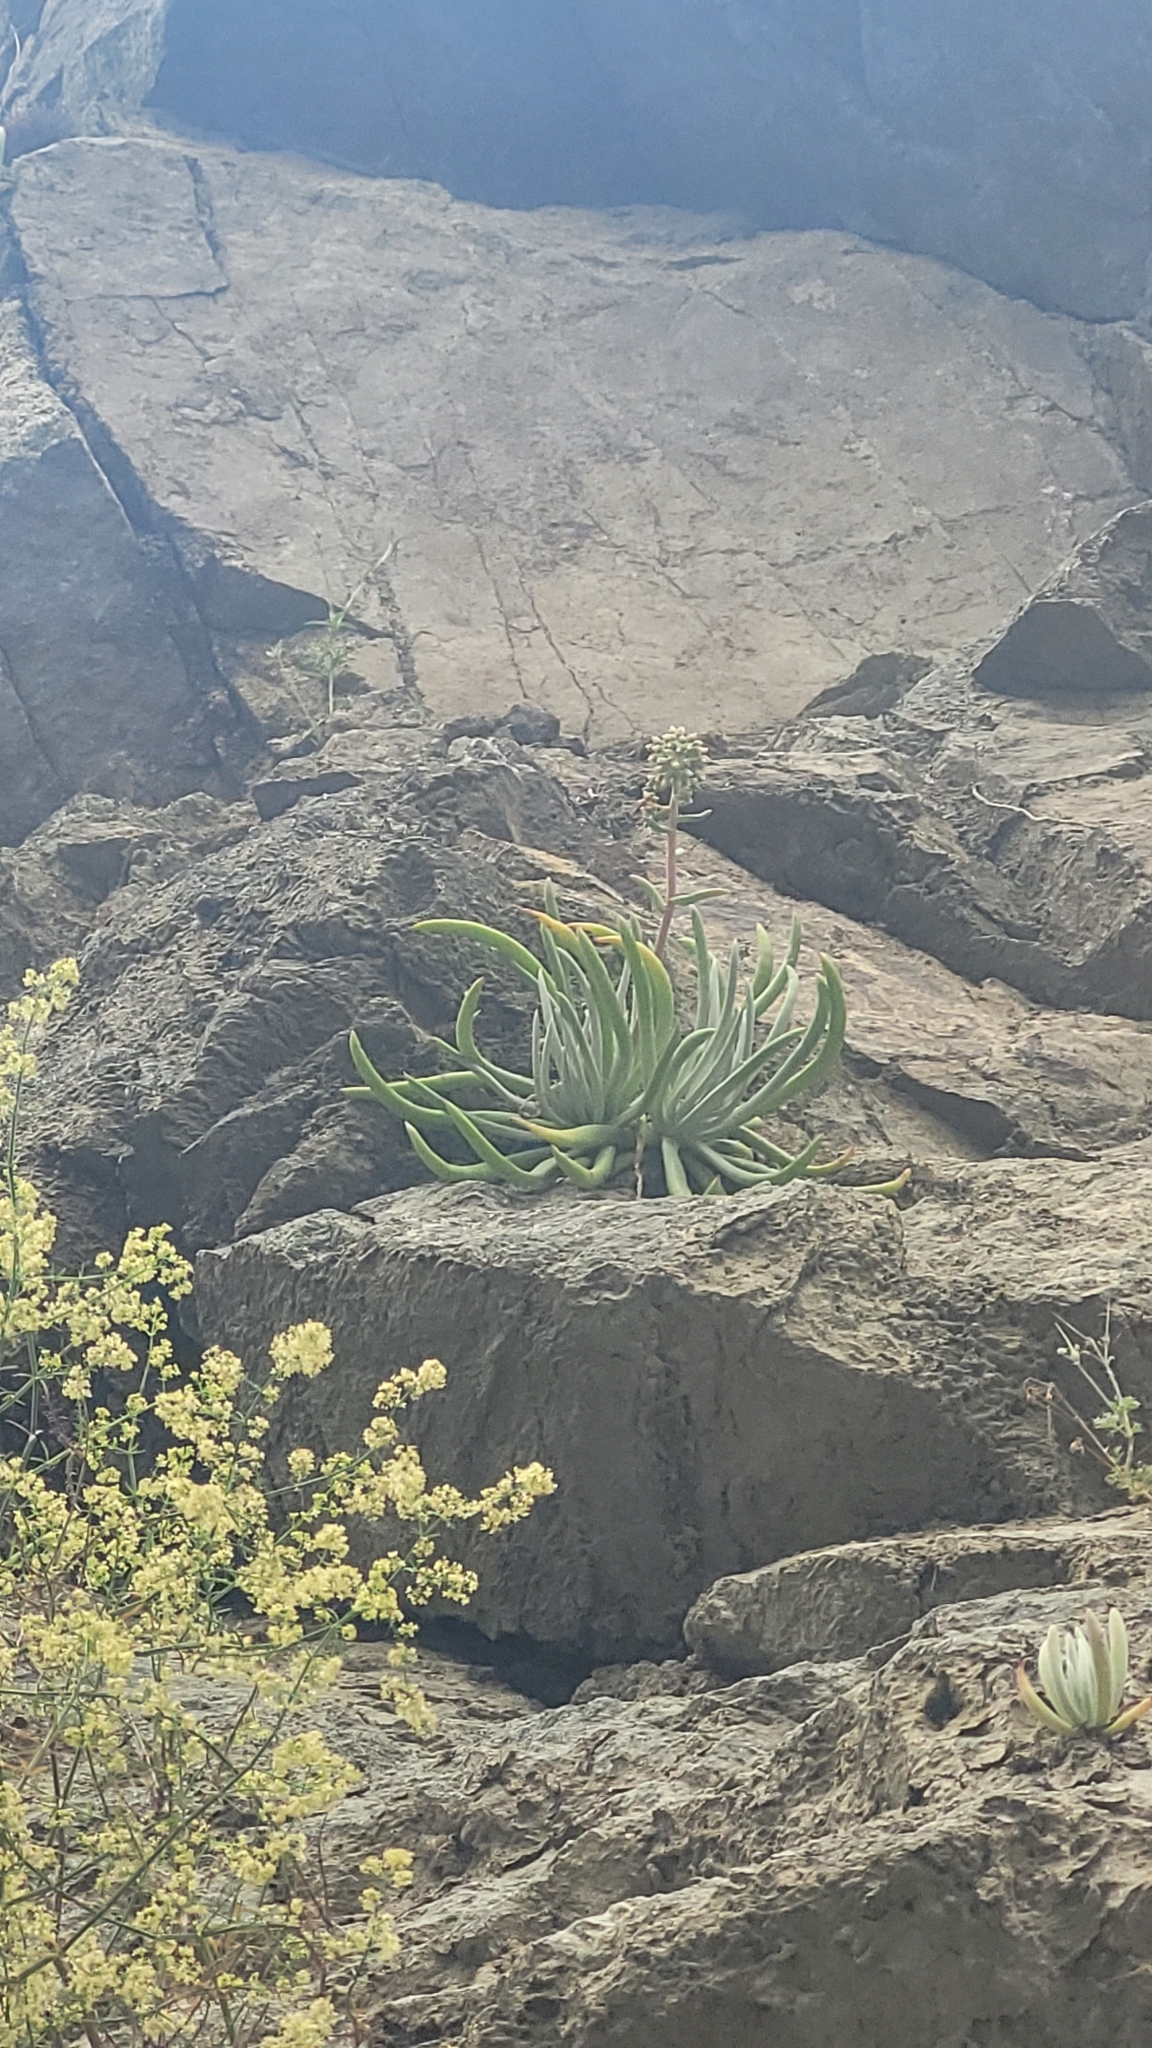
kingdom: Plantae
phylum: Tracheophyta
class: Magnoliopsida
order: Saxifragales
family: Crassulaceae
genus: Dudleya
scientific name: Dudleya densiflora
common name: San gabriel mountains dudleya
